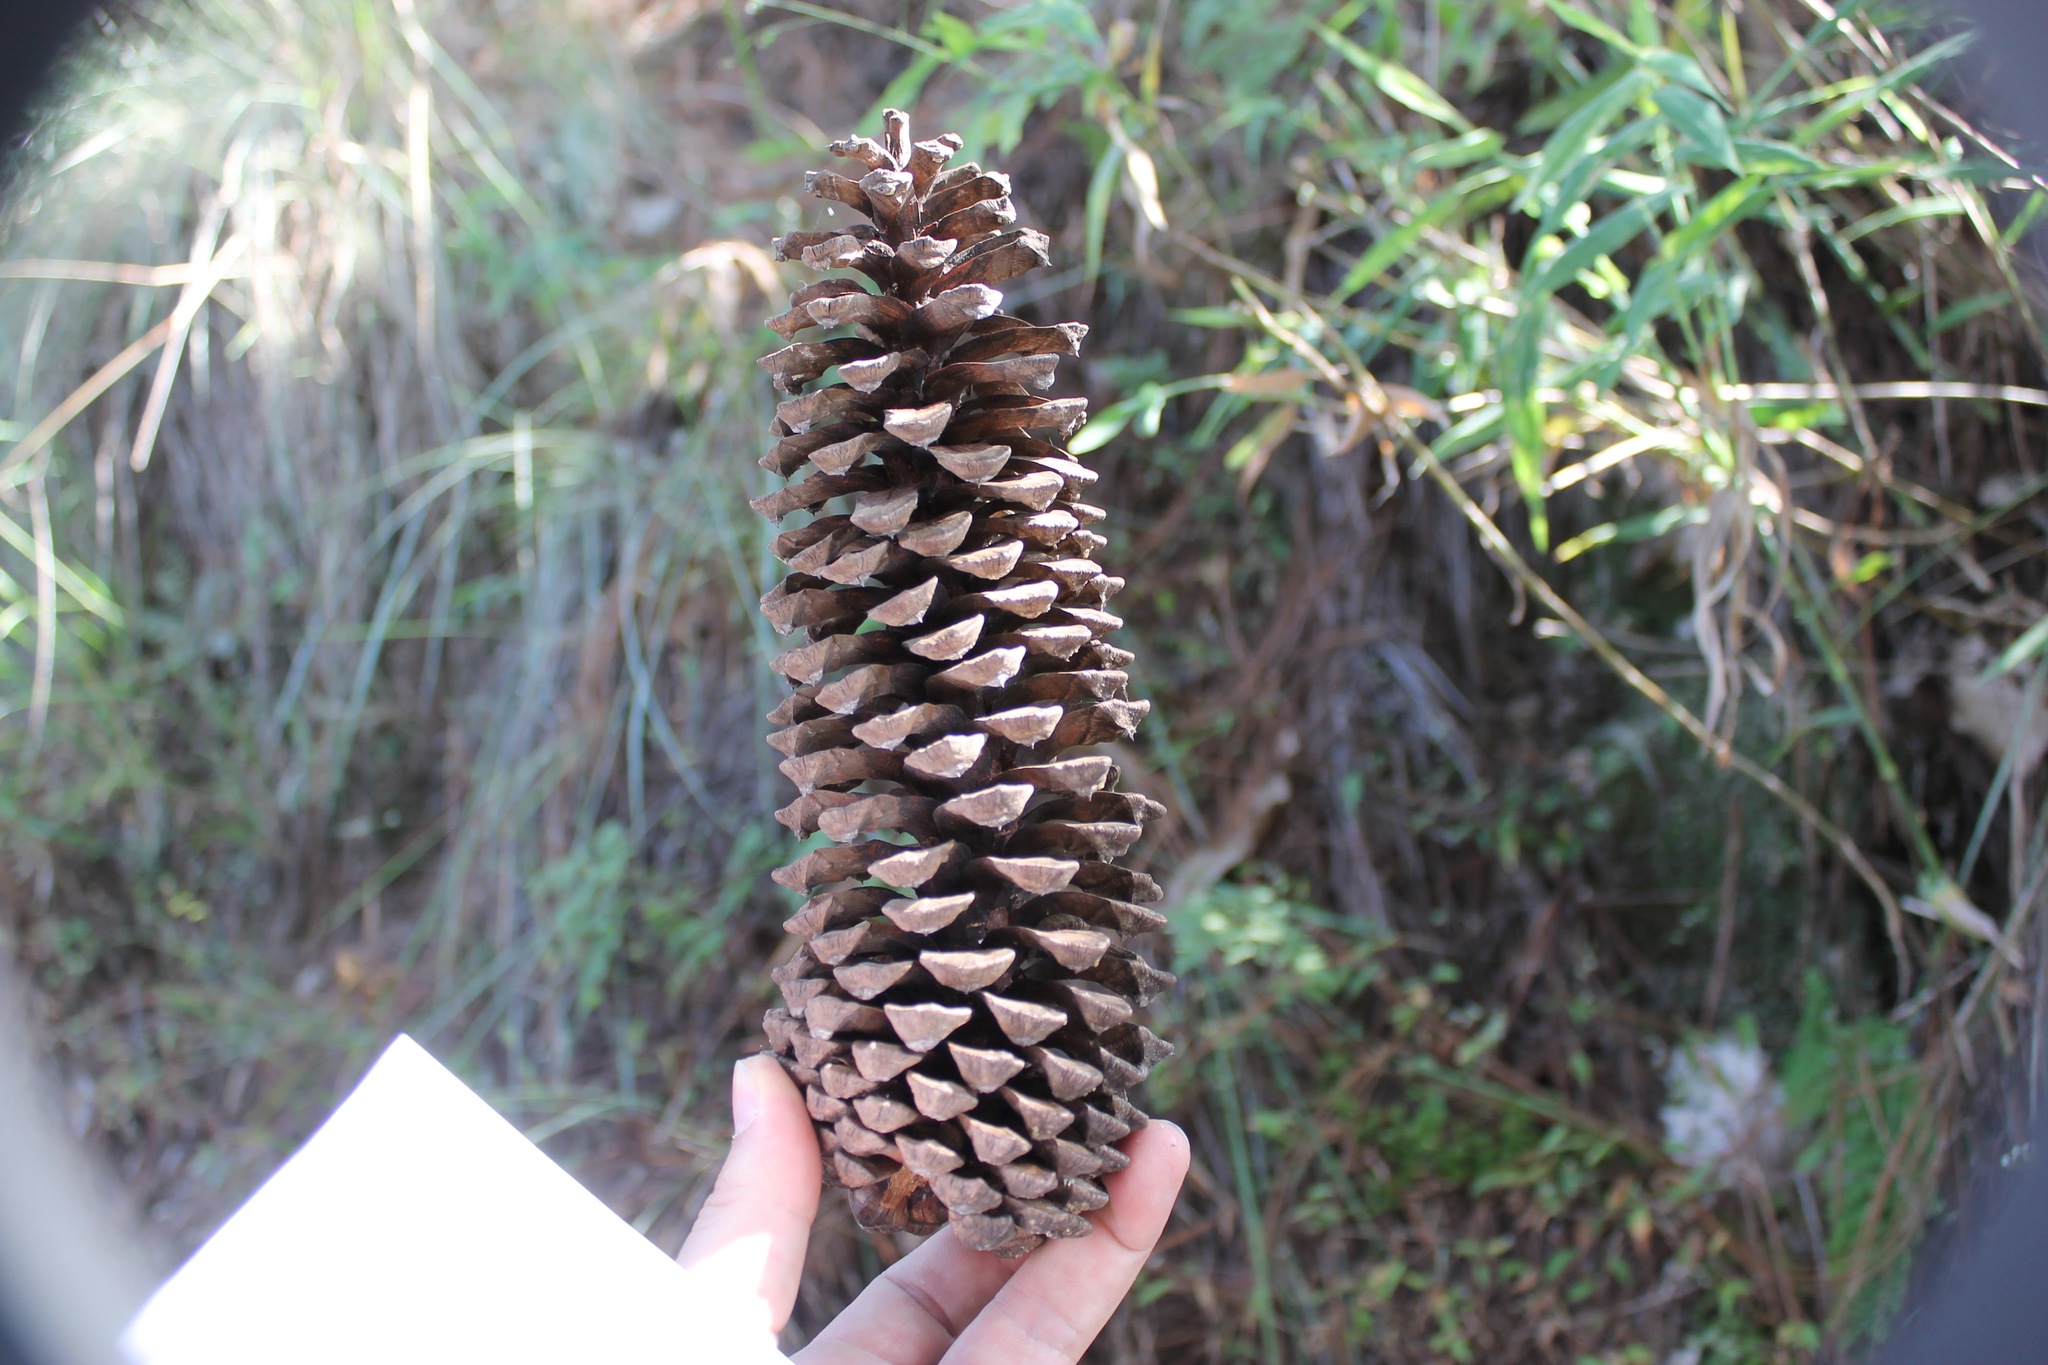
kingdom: Plantae
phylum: Tracheophyta
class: Pinopsida
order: Pinales
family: Pinaceae
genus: Pinus
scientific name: Pinus devoniana
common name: Michoacan pine
